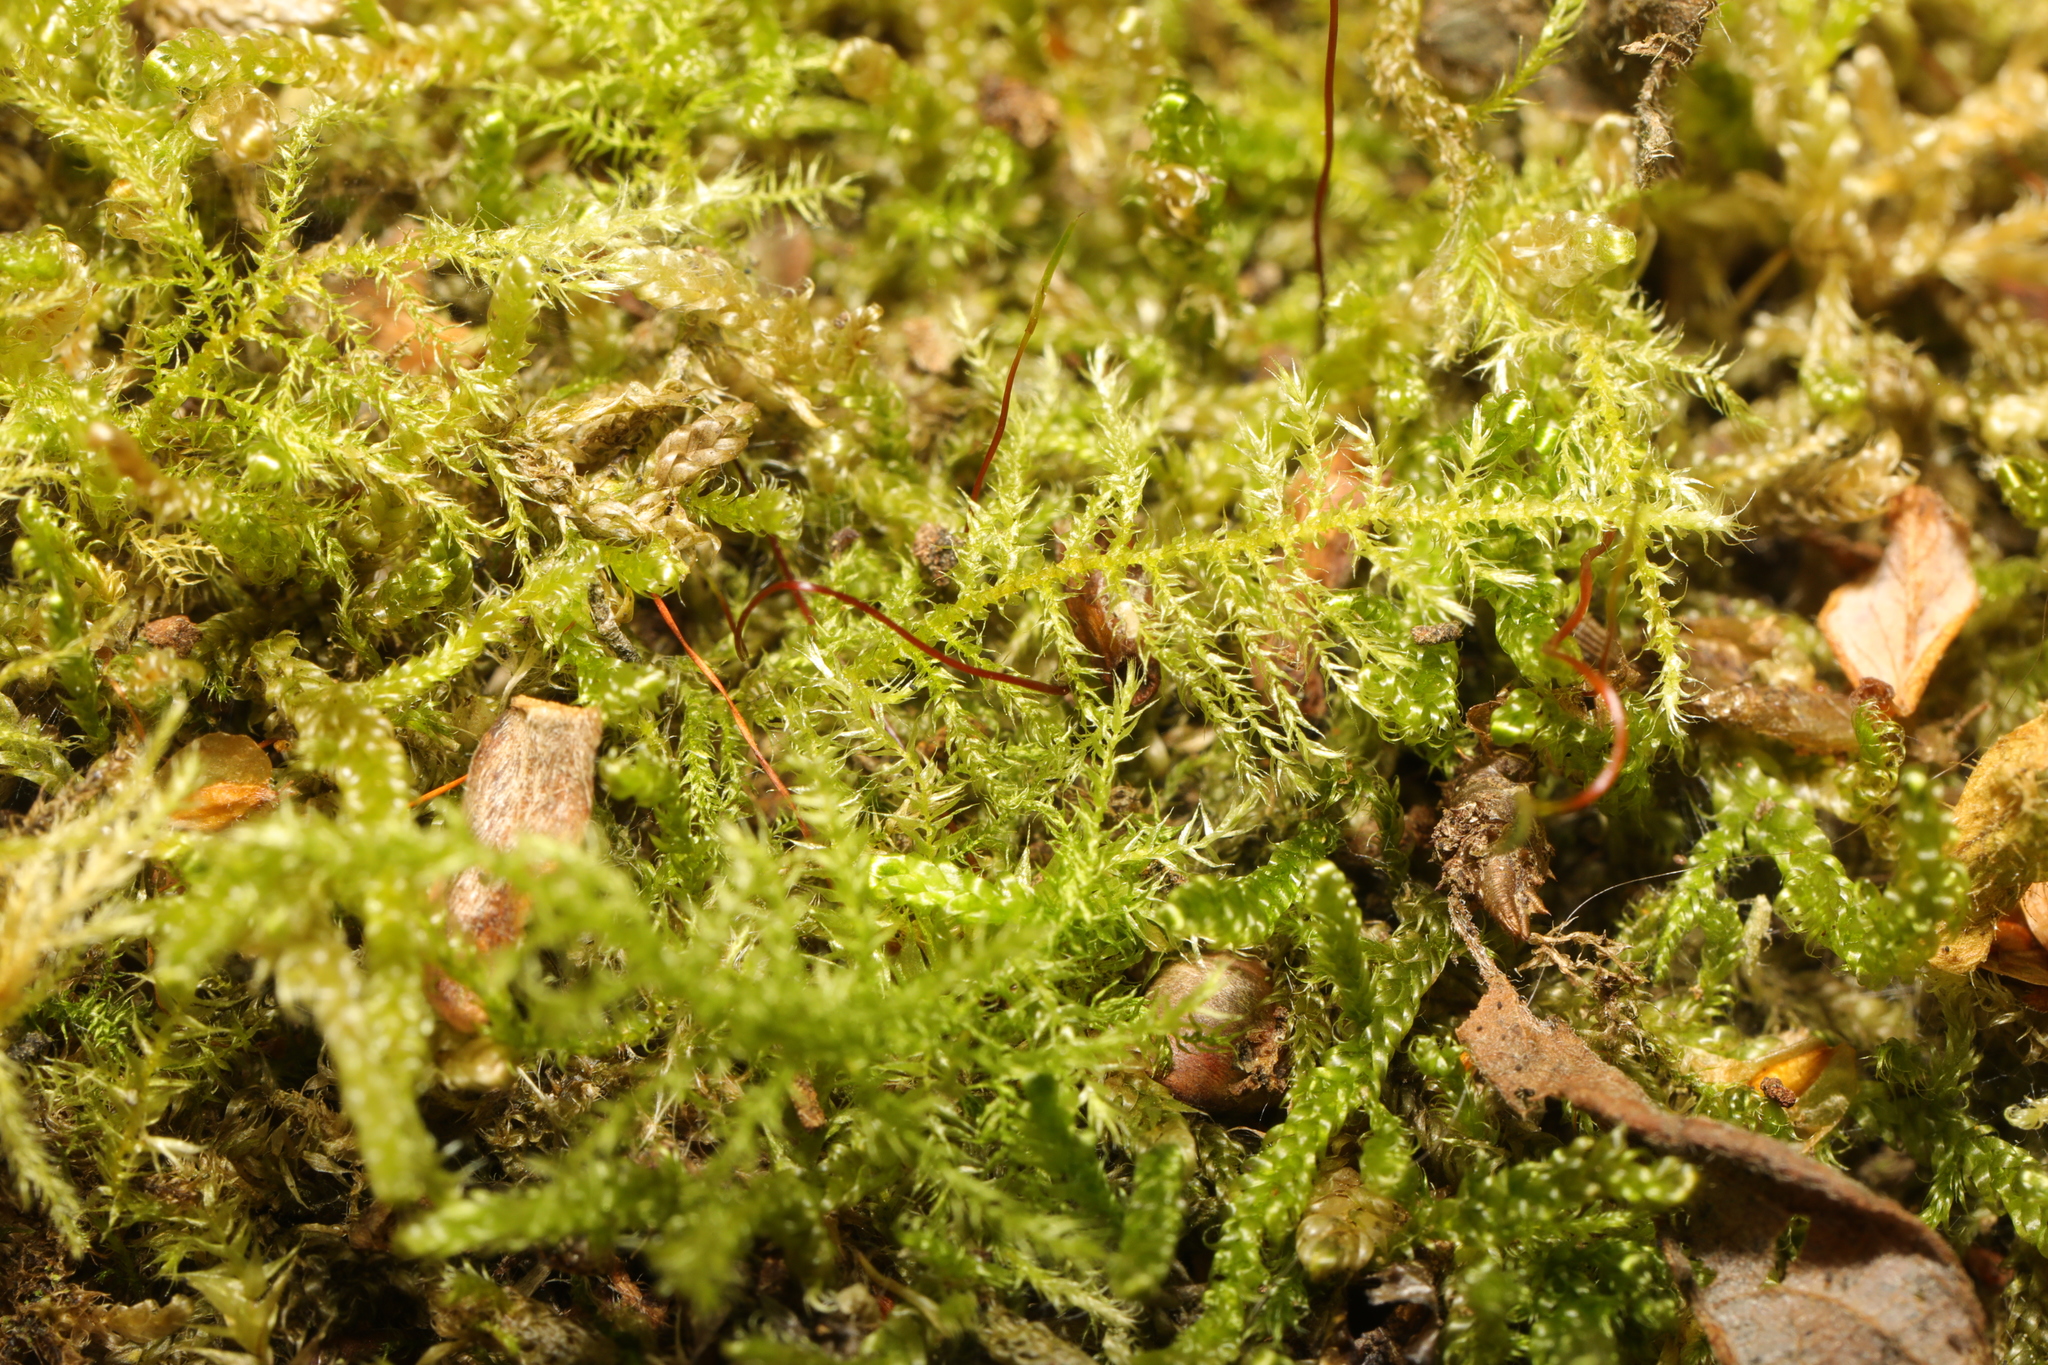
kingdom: Plantae
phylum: Bryophyta
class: Bryopsida
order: Hypnales
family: Brachytheciaceae
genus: Kindbergia
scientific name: Kindbergia praelonga
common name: Slender beaked moss
